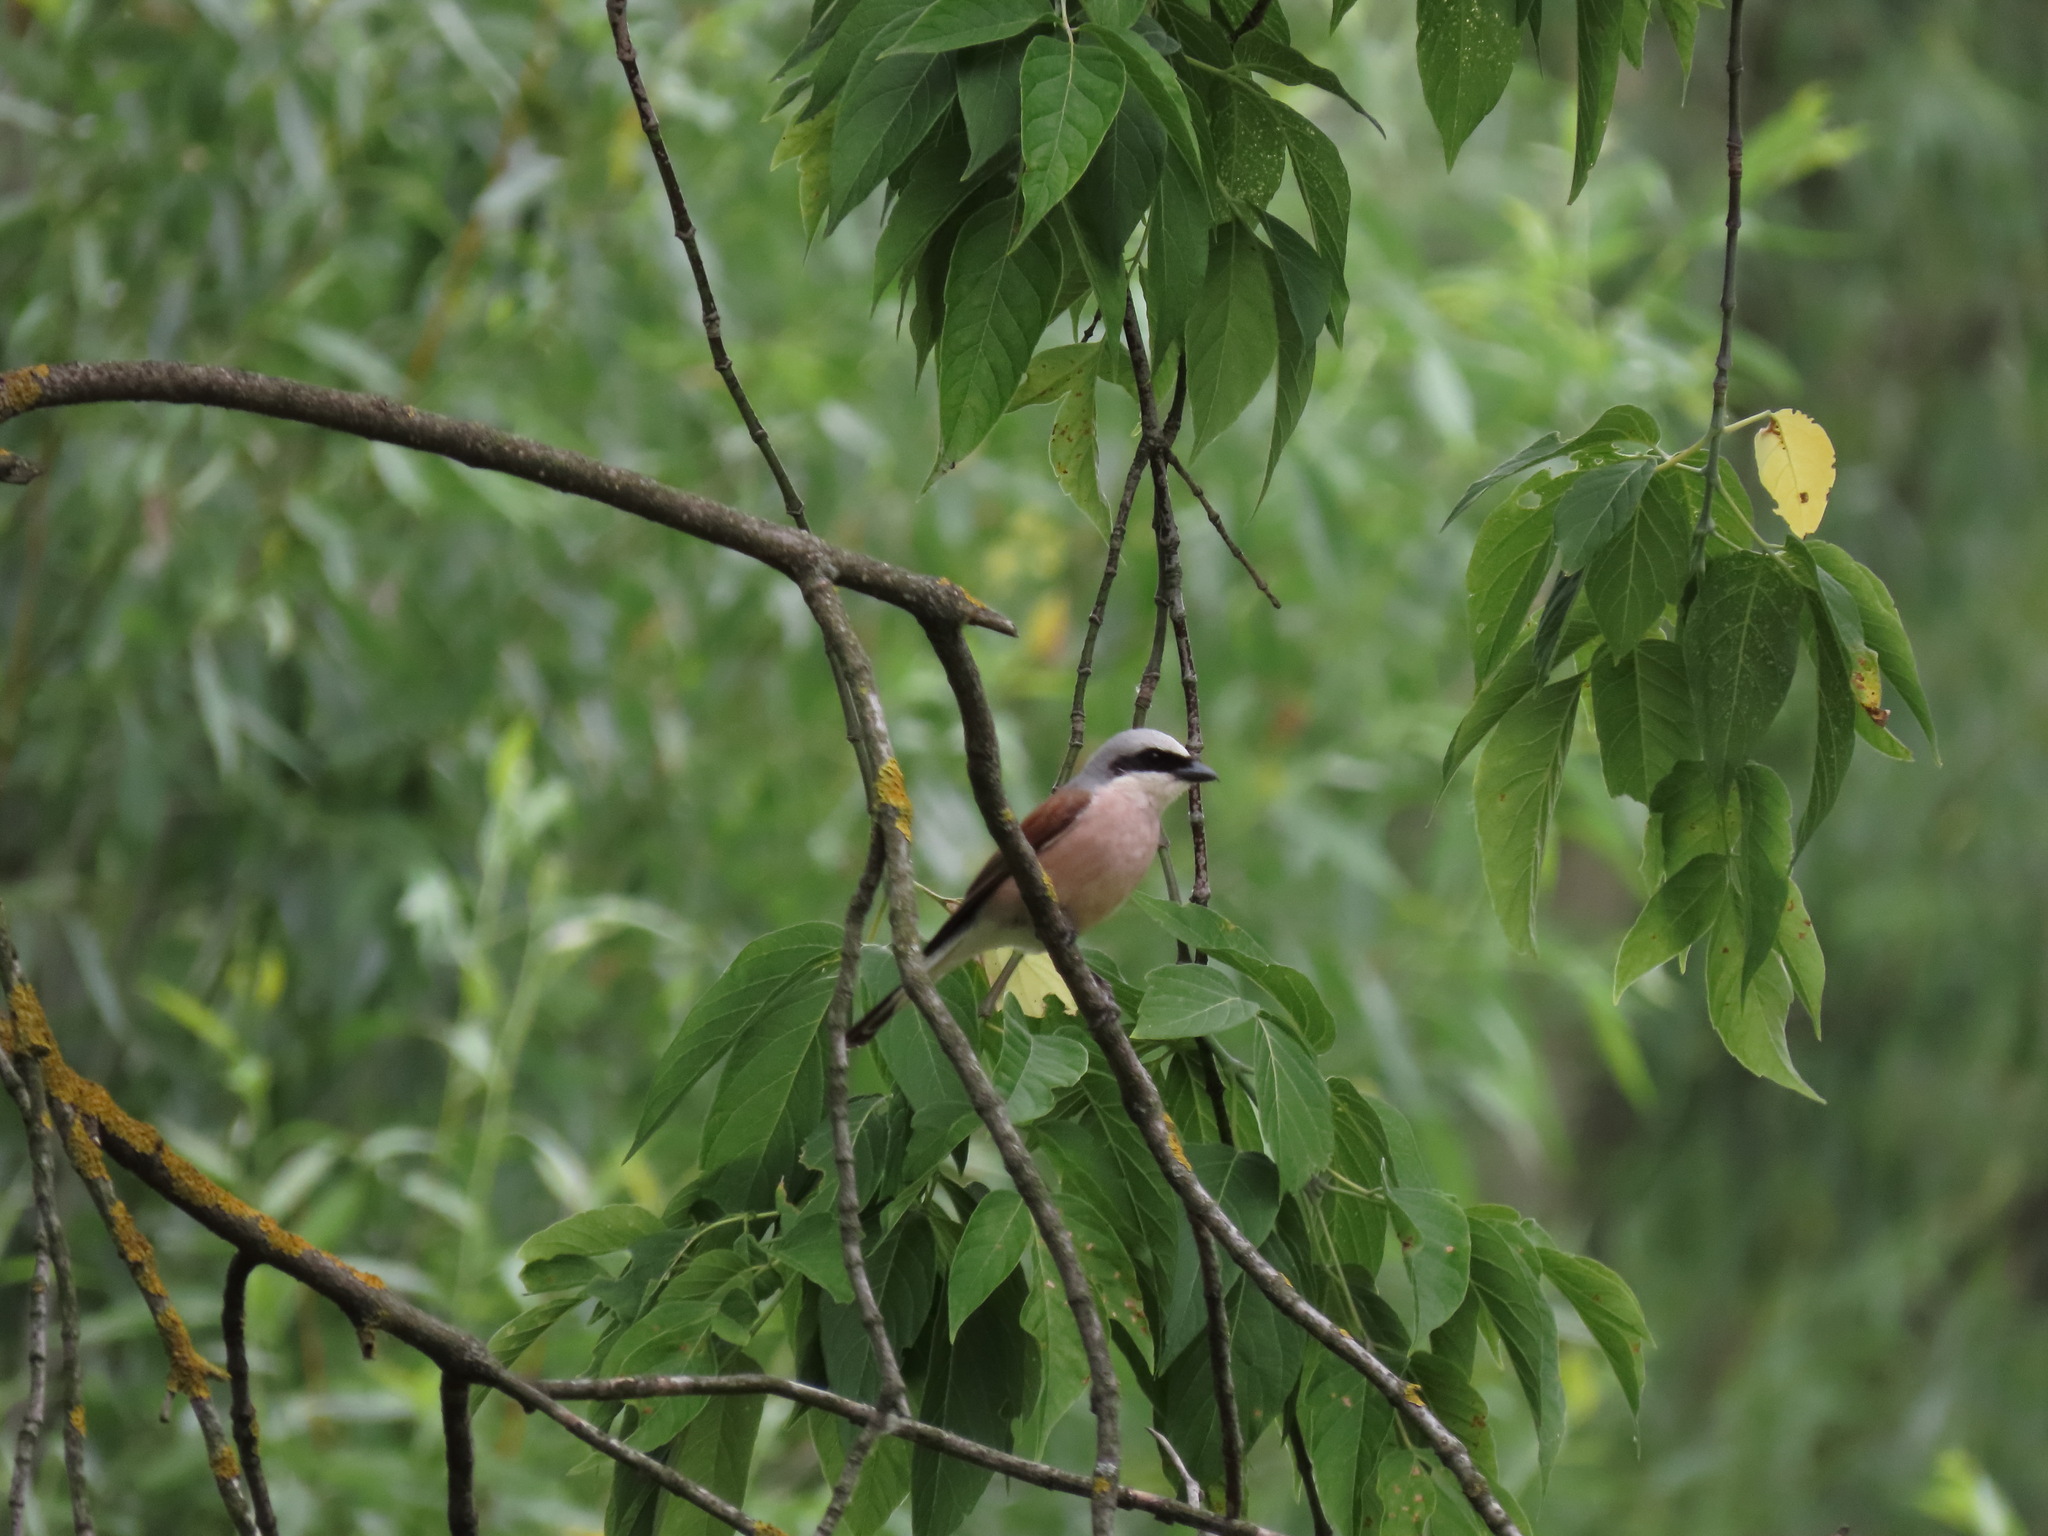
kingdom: Animalia
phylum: Chordata
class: Aves
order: Passeriformes
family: Laniidae
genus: Lanius
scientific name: Lanius collurio
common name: Red-backed shrike
